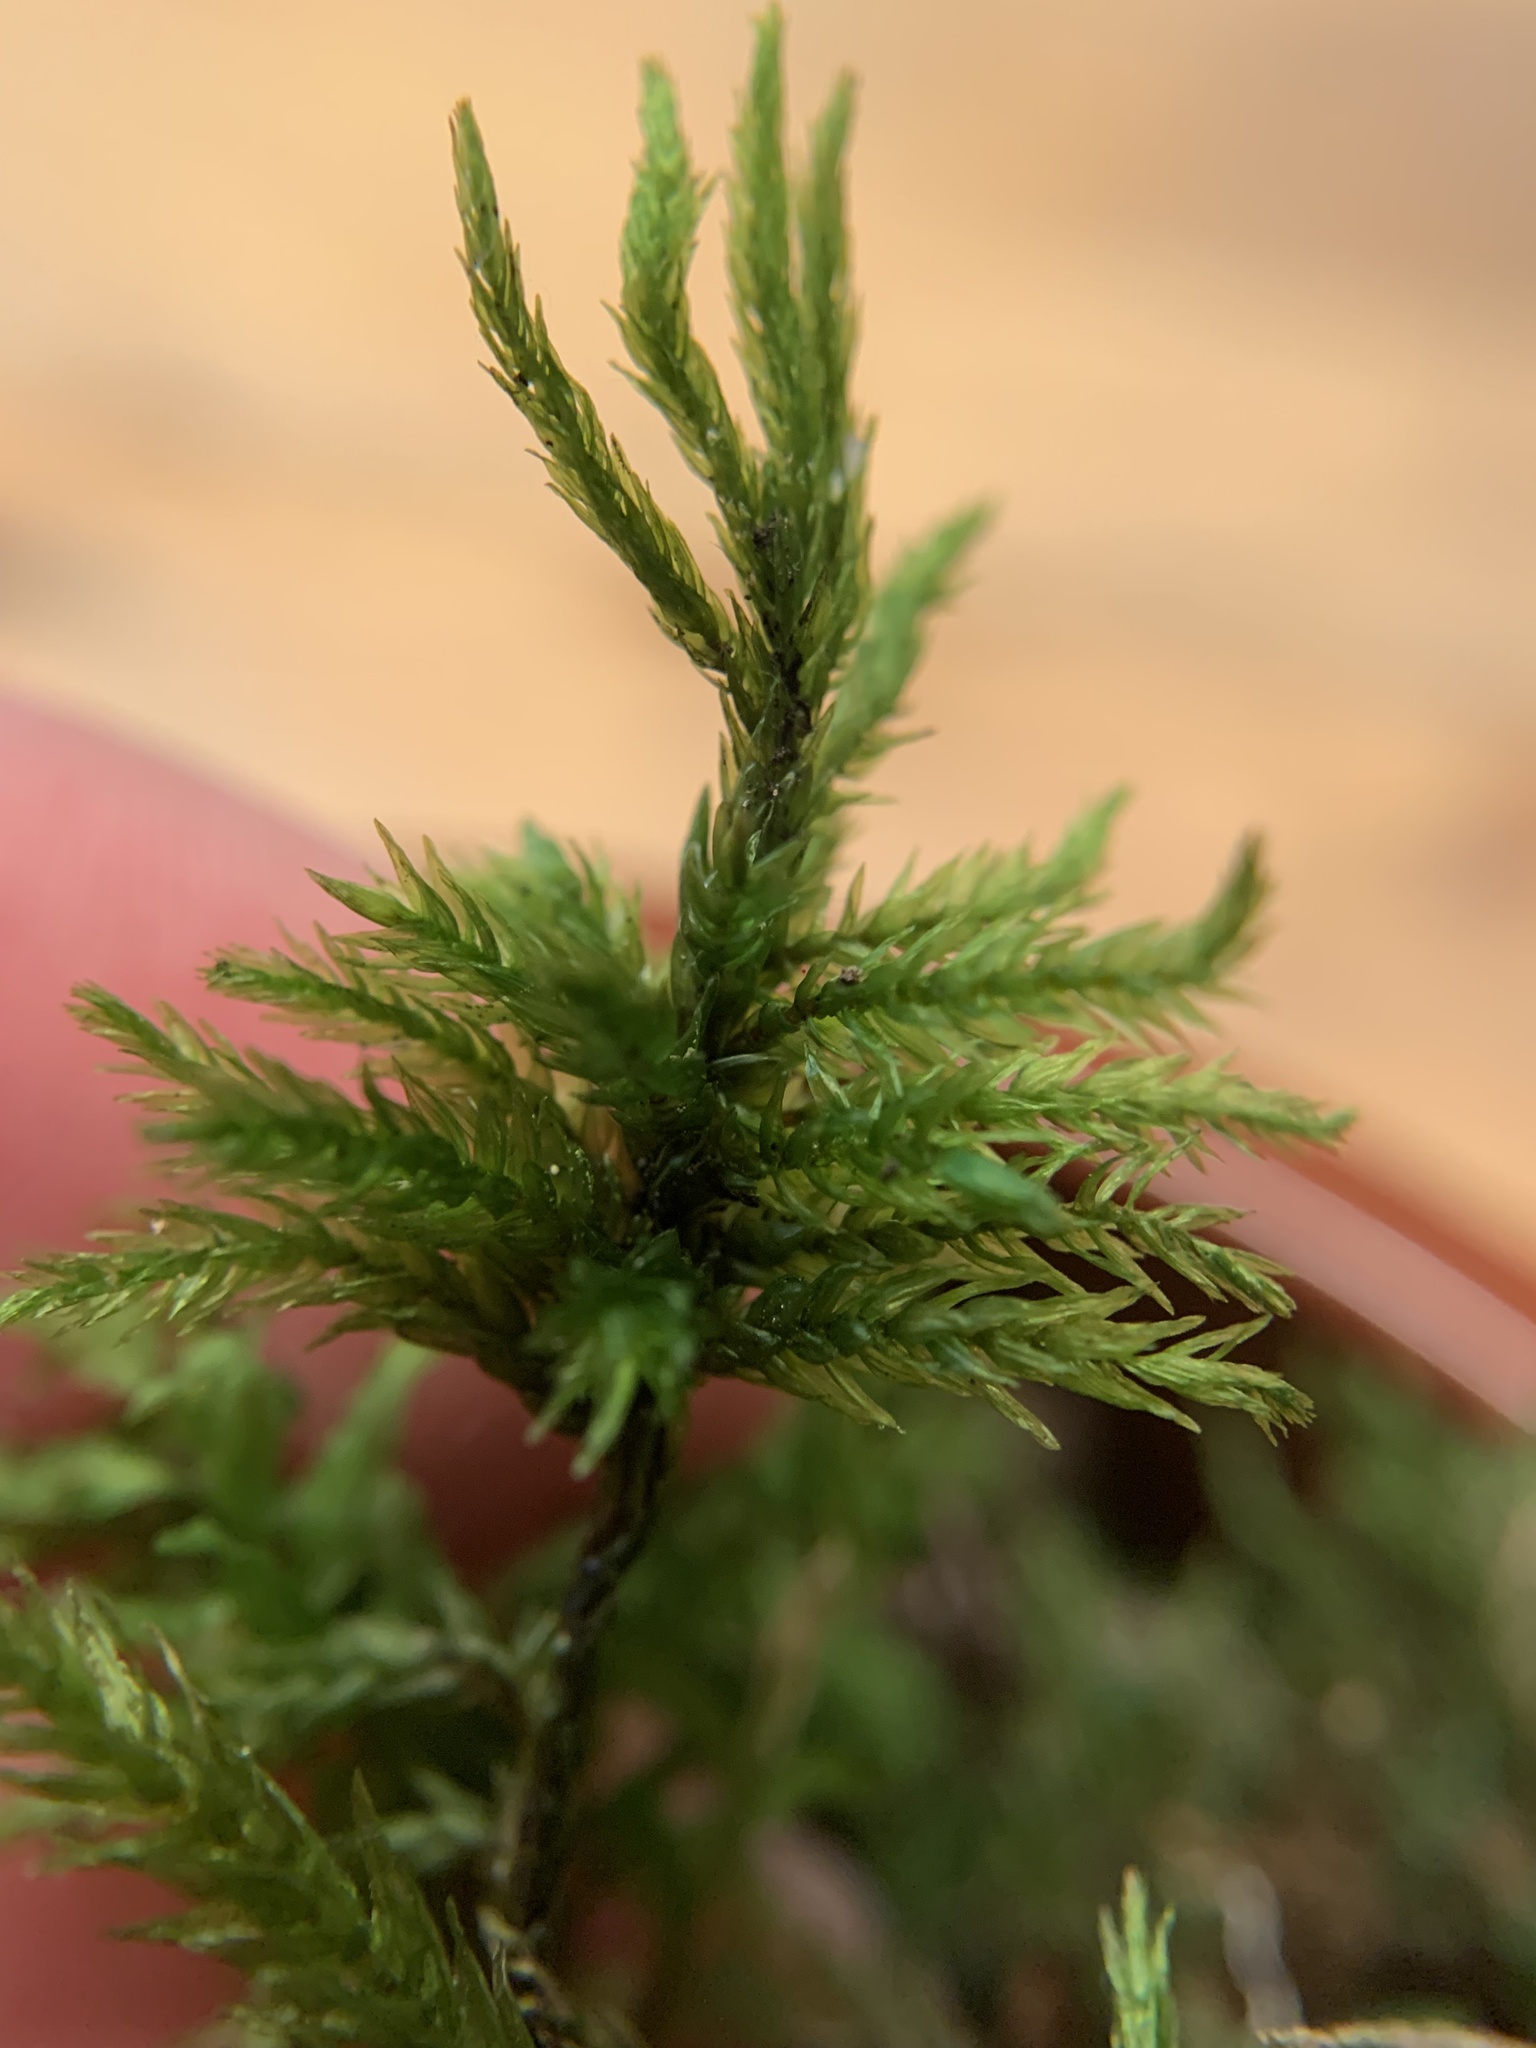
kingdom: Plantae
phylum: Bryophyta
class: Bryopsida
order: Hypnales
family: Climaciaceae
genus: Climacium
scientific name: Climacium dendroides
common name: Northern tree moss
